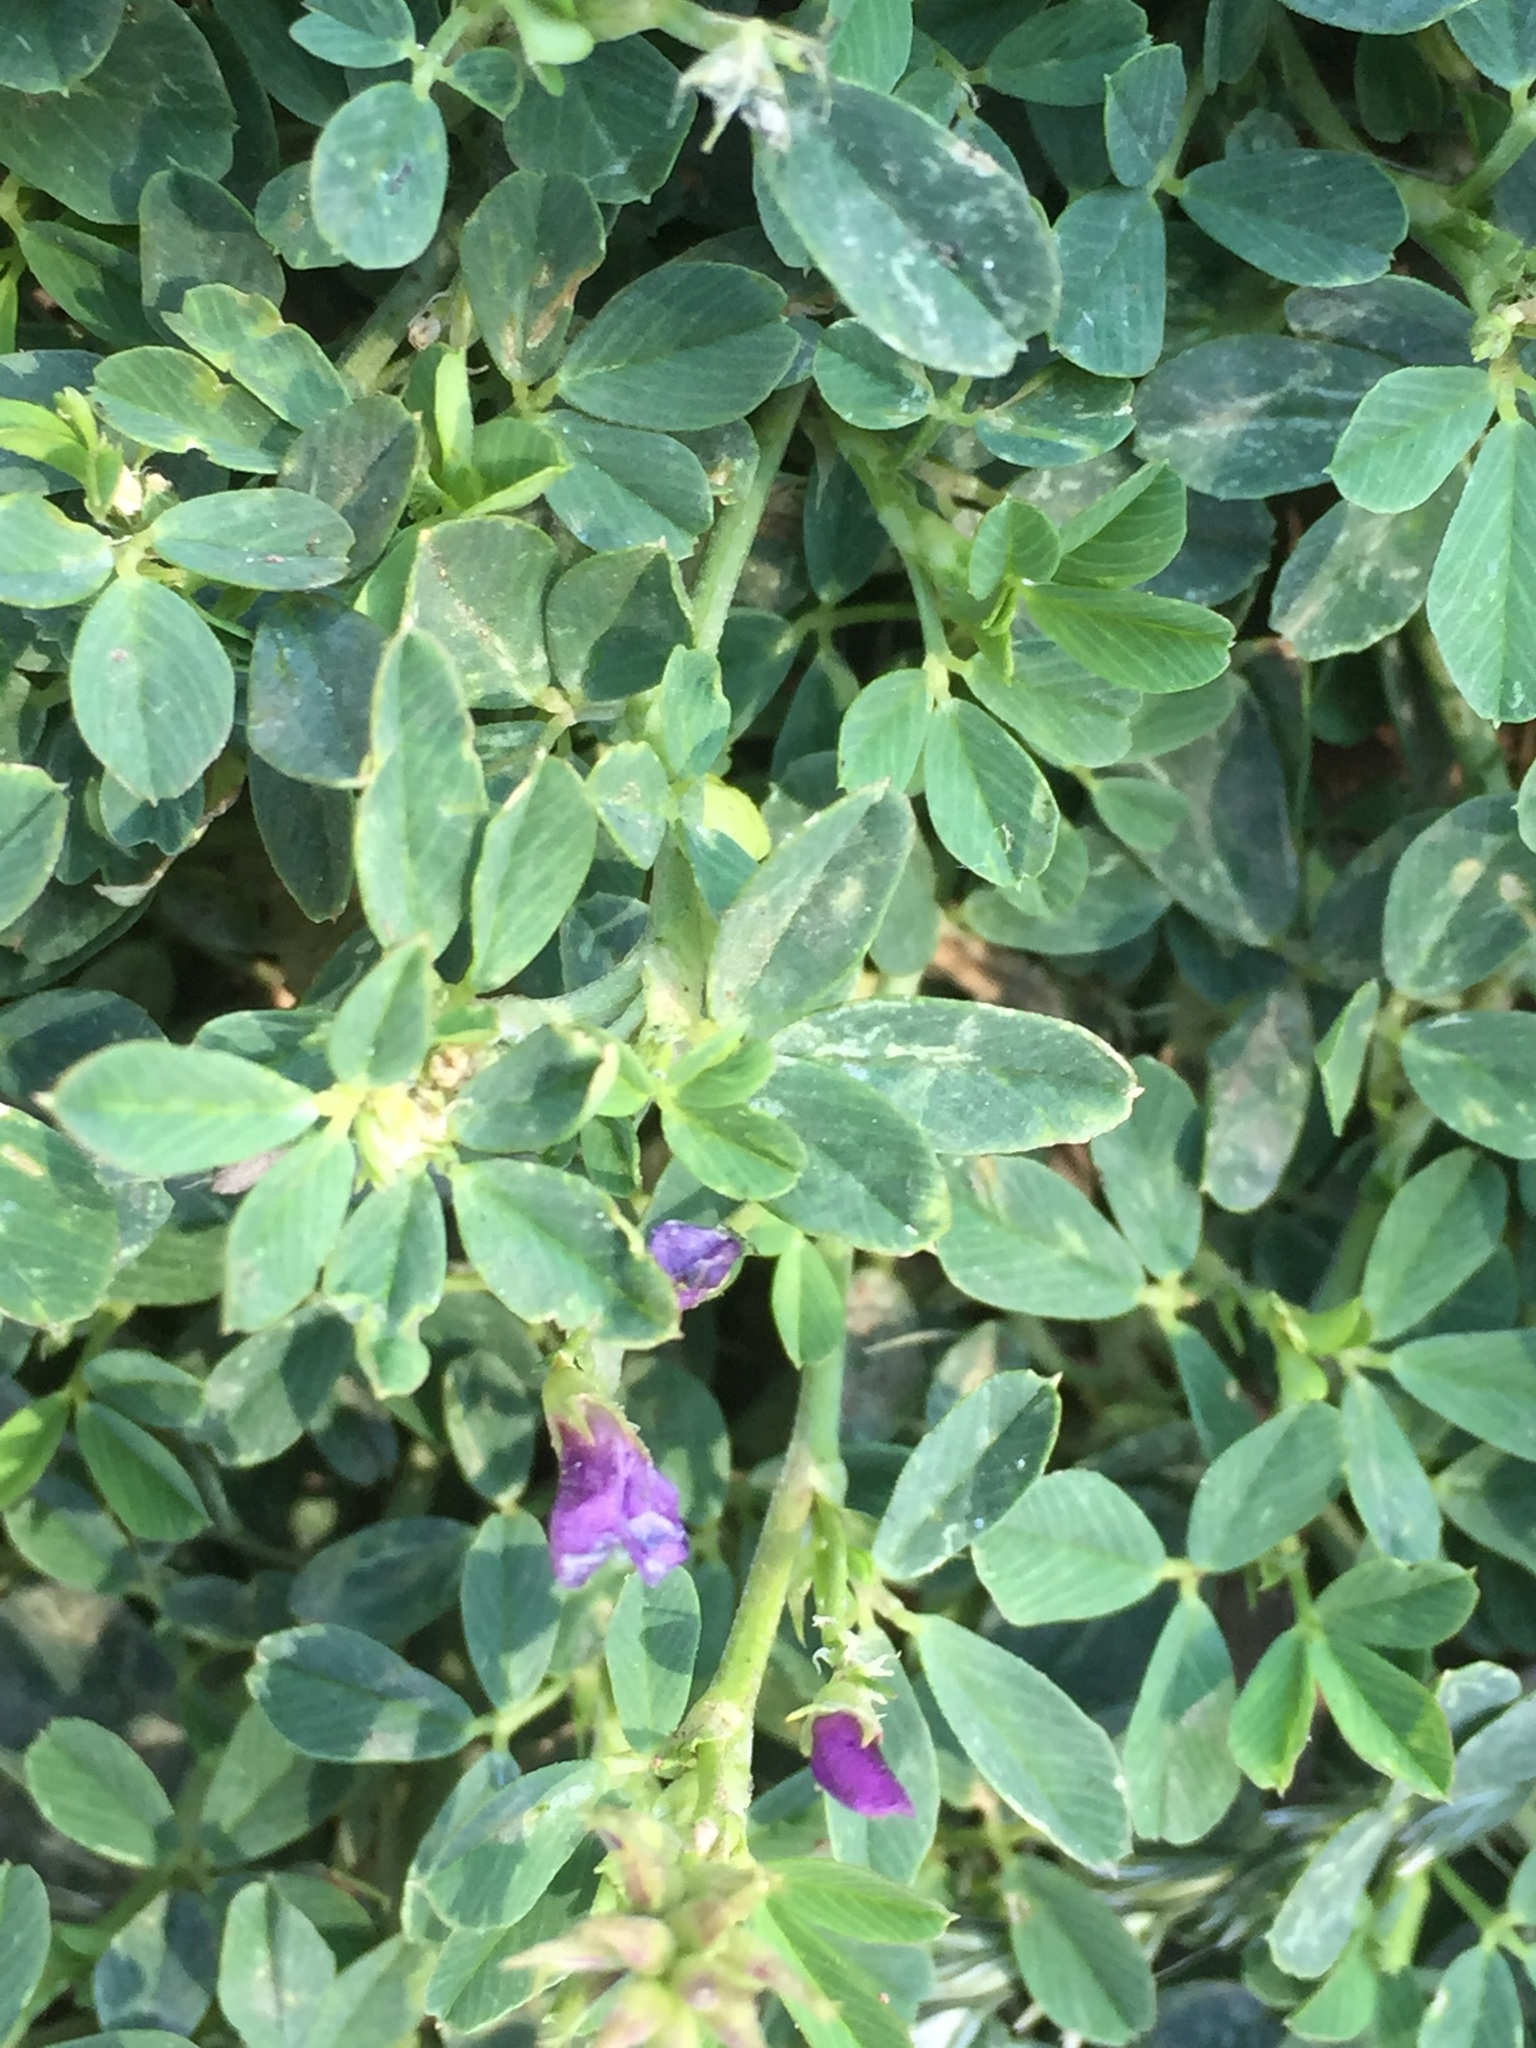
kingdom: Plantae
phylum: Tracheophyta
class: Magnoliopsida
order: Fabales
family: Fabaceae
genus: Medicago
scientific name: Medicago sativa
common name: Alfalfa
